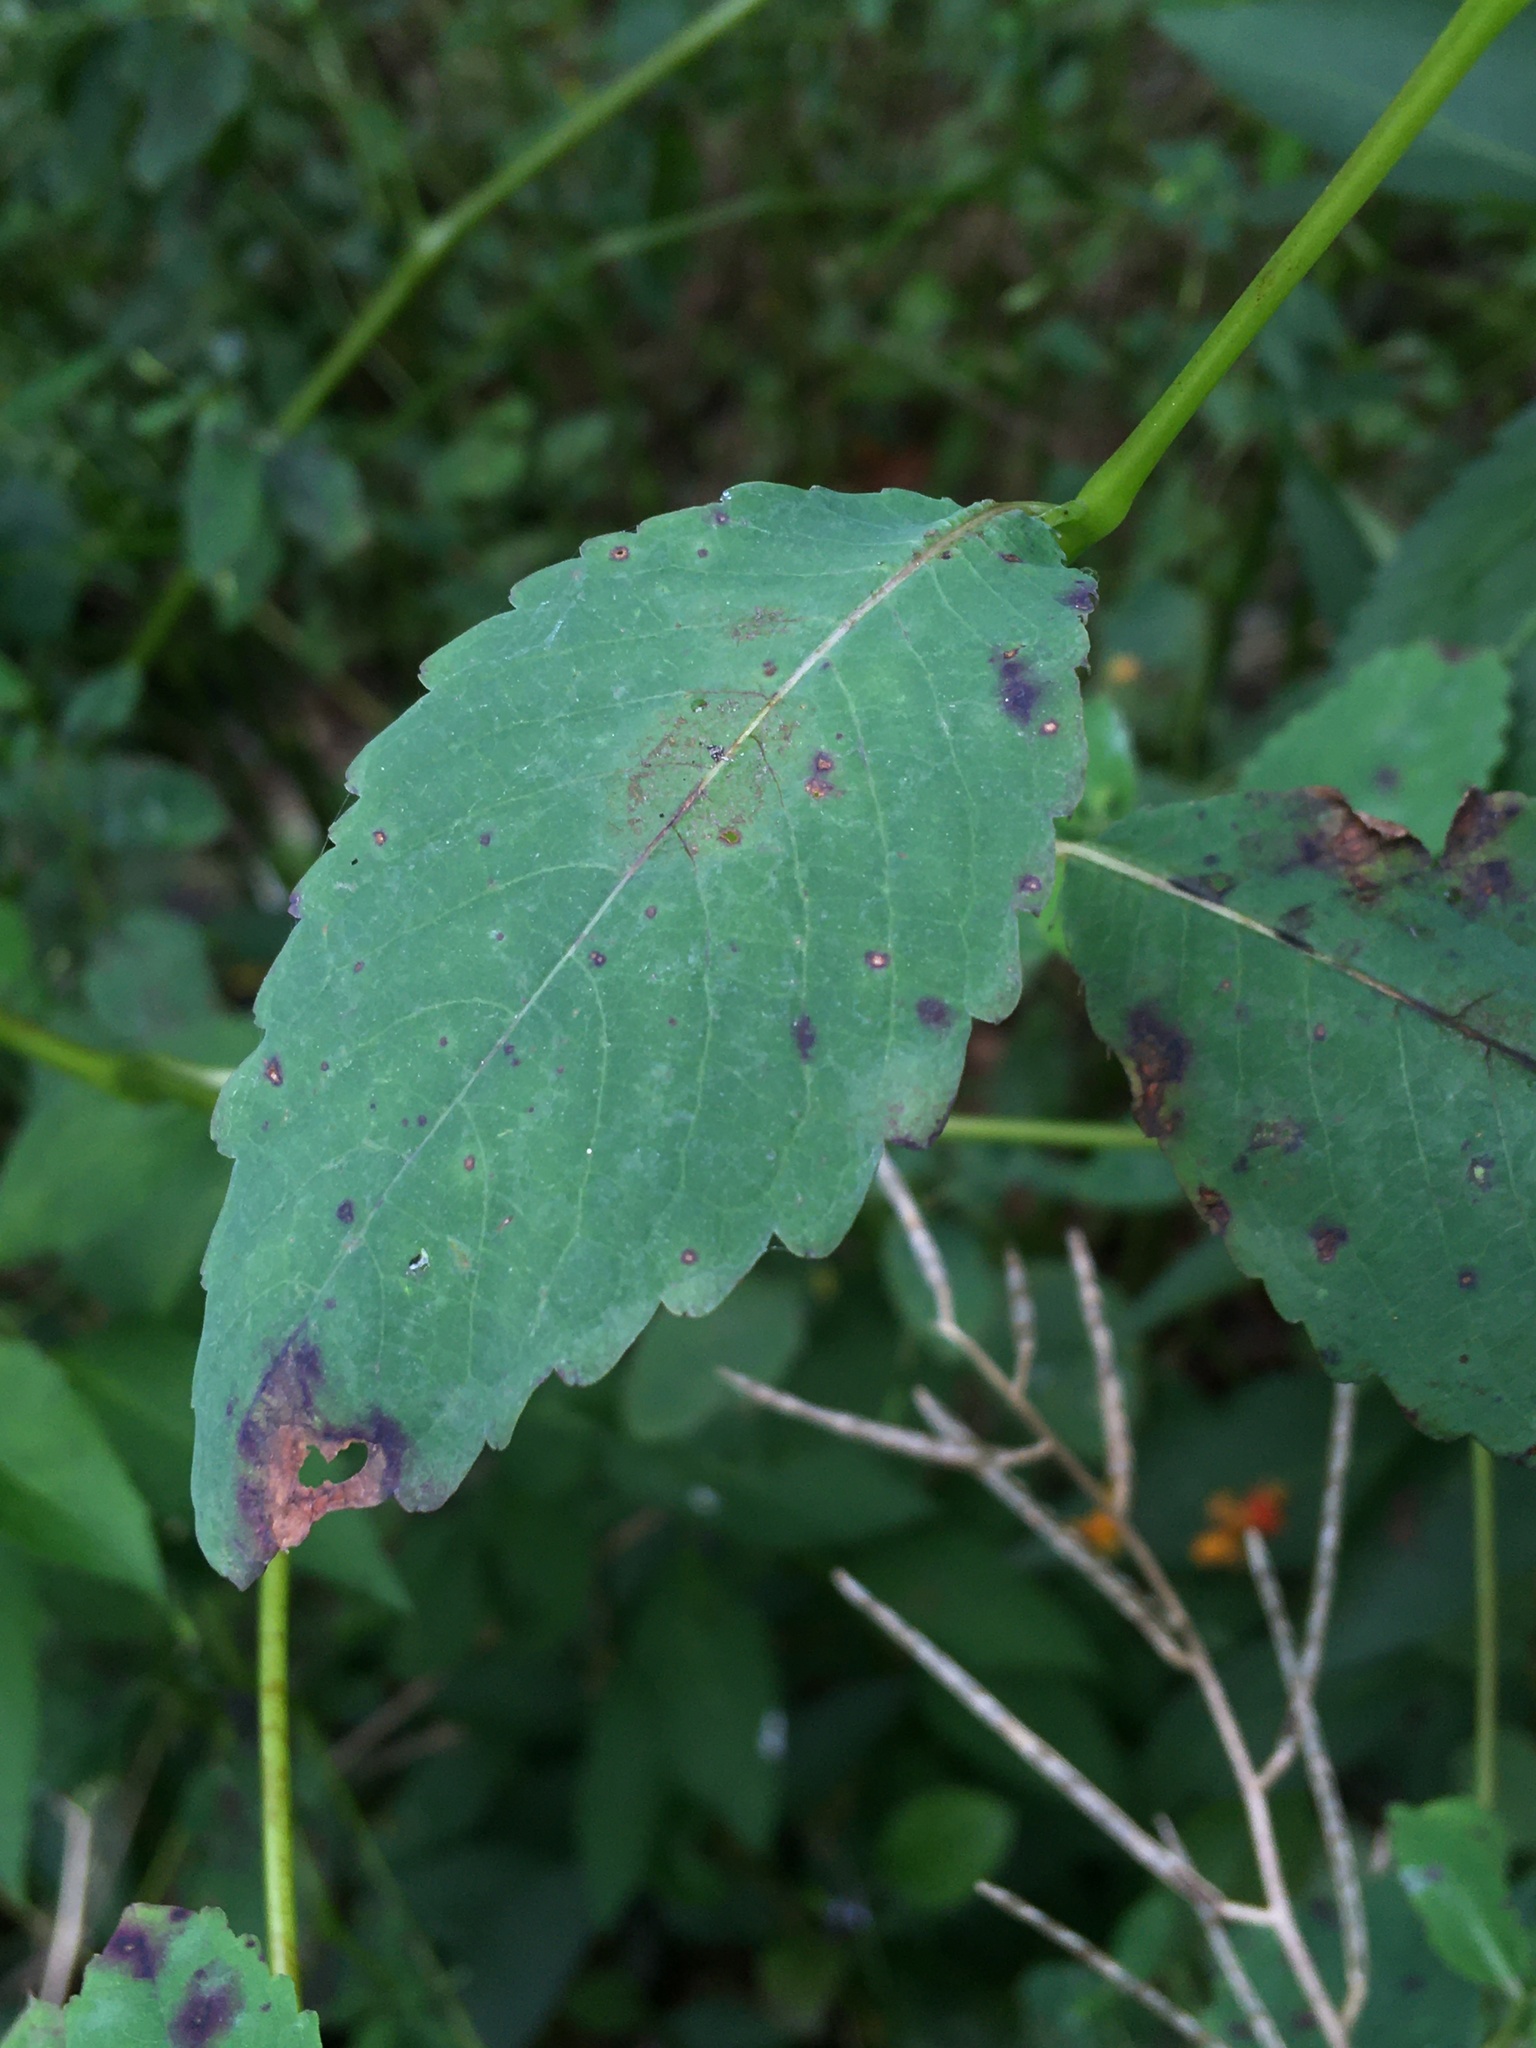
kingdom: Plantae
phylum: Tracheophyta
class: Magnoliopsida
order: Ericales
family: Balsaminaceae
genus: Impatiens
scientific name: Impatiens pallida
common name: Pale snapweed
